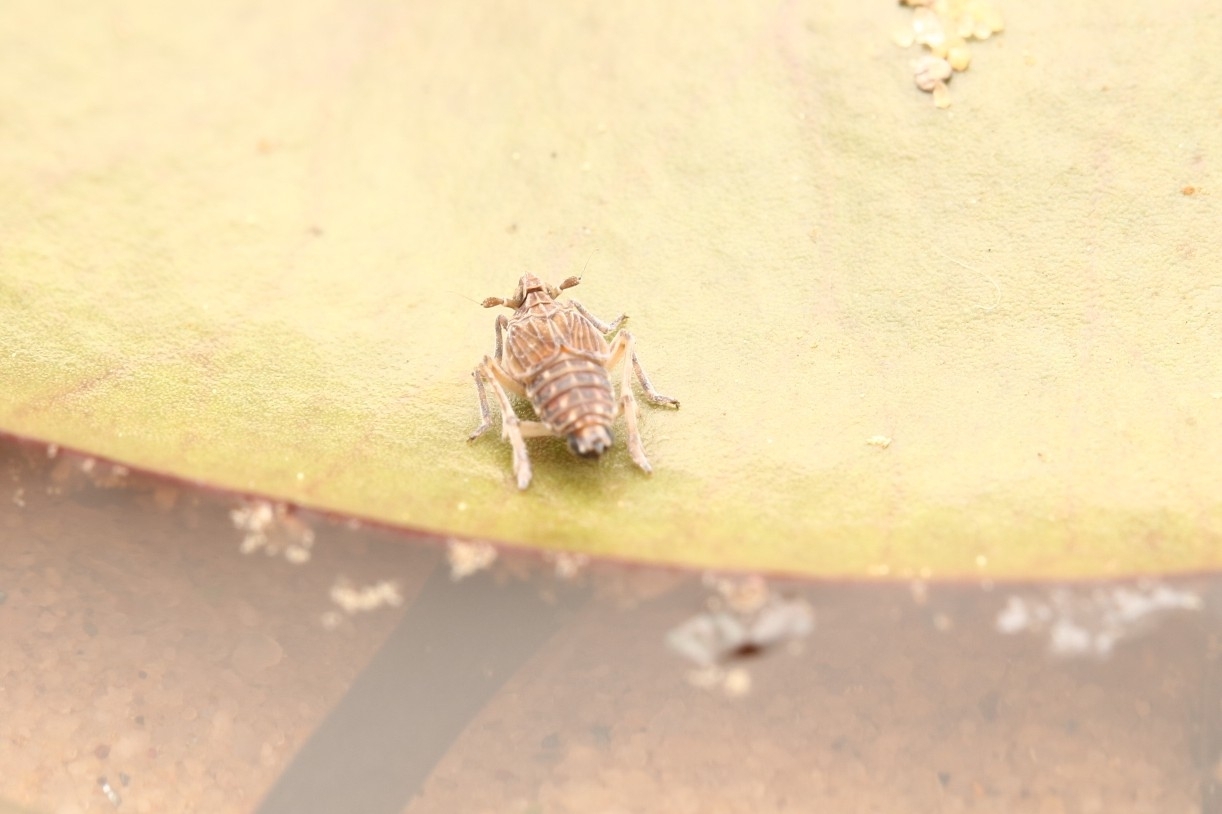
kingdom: Animalia
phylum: Arthropoda
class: Insecta
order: Hemiptera
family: Delphacidae
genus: Megamelus
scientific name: Megamelus davisi
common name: Planthopper
